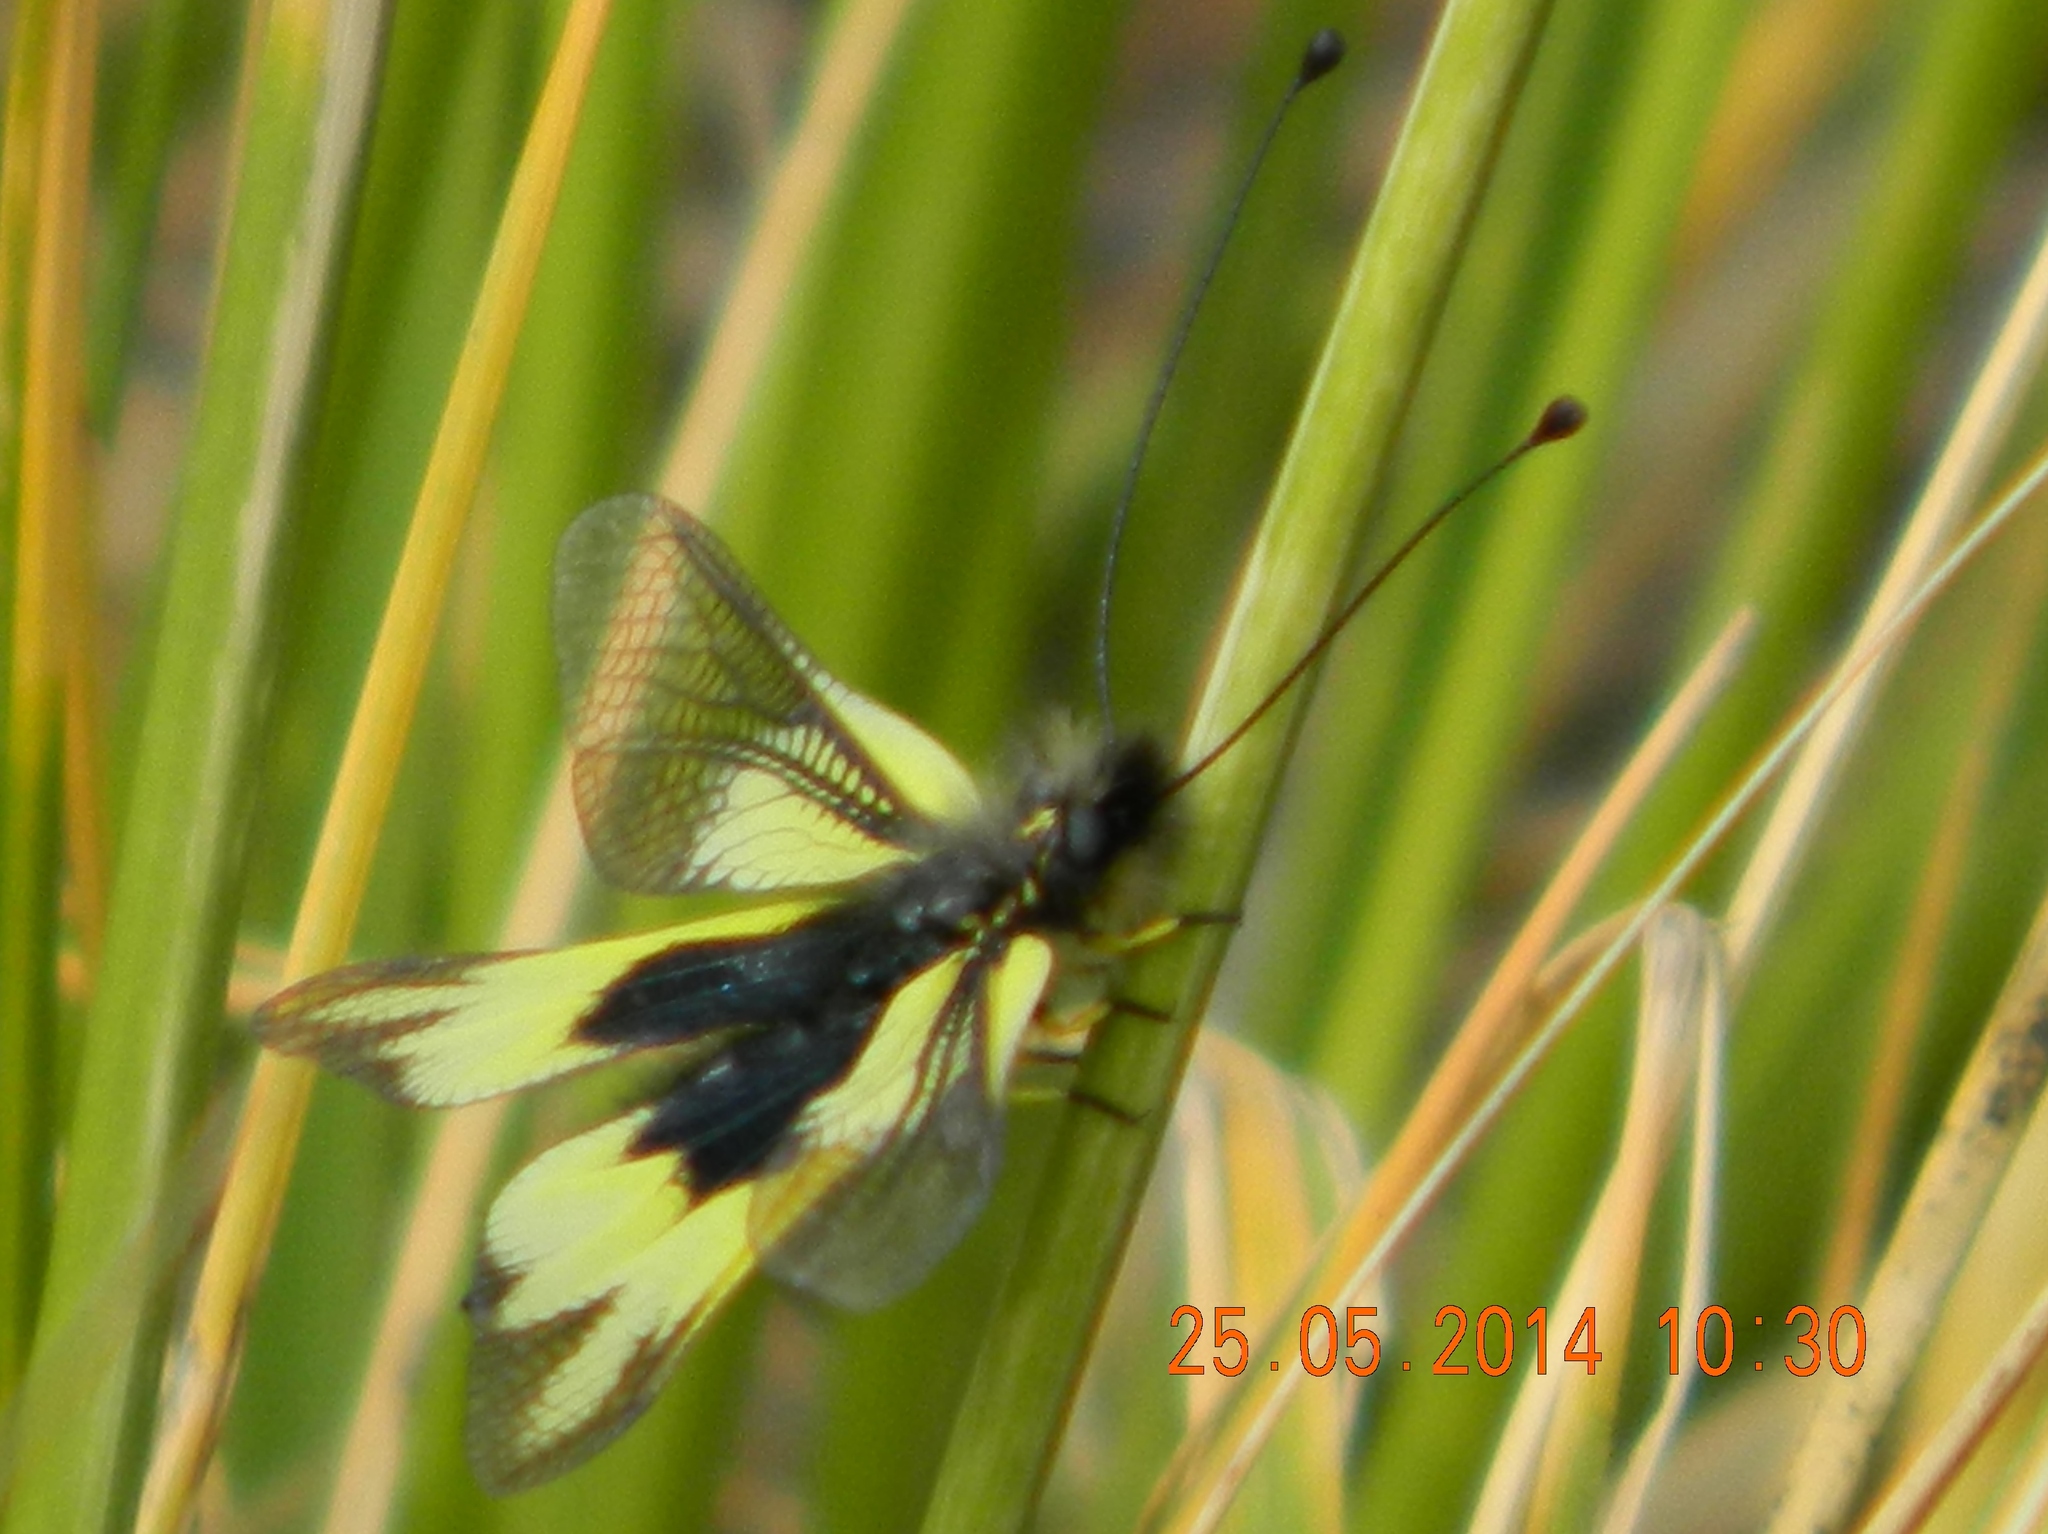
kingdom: Animalia
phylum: Arthropoda
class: Insecta
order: Neuroptera
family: Ascalaphidae
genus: Libelloides
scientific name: Libelloides cunii
